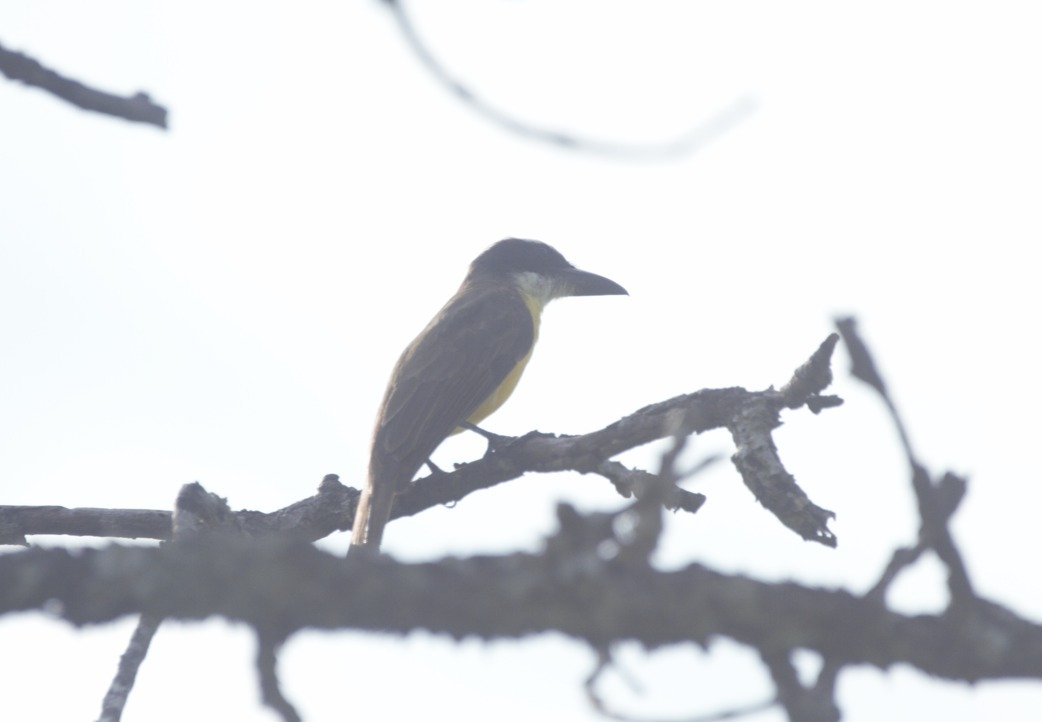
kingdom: Animalia
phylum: Chordata
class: Aves
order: Passeriformes
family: Tyrannidae
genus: Megarynchus
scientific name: Megarynchus pitangua
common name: Boat-billed flycatcher
